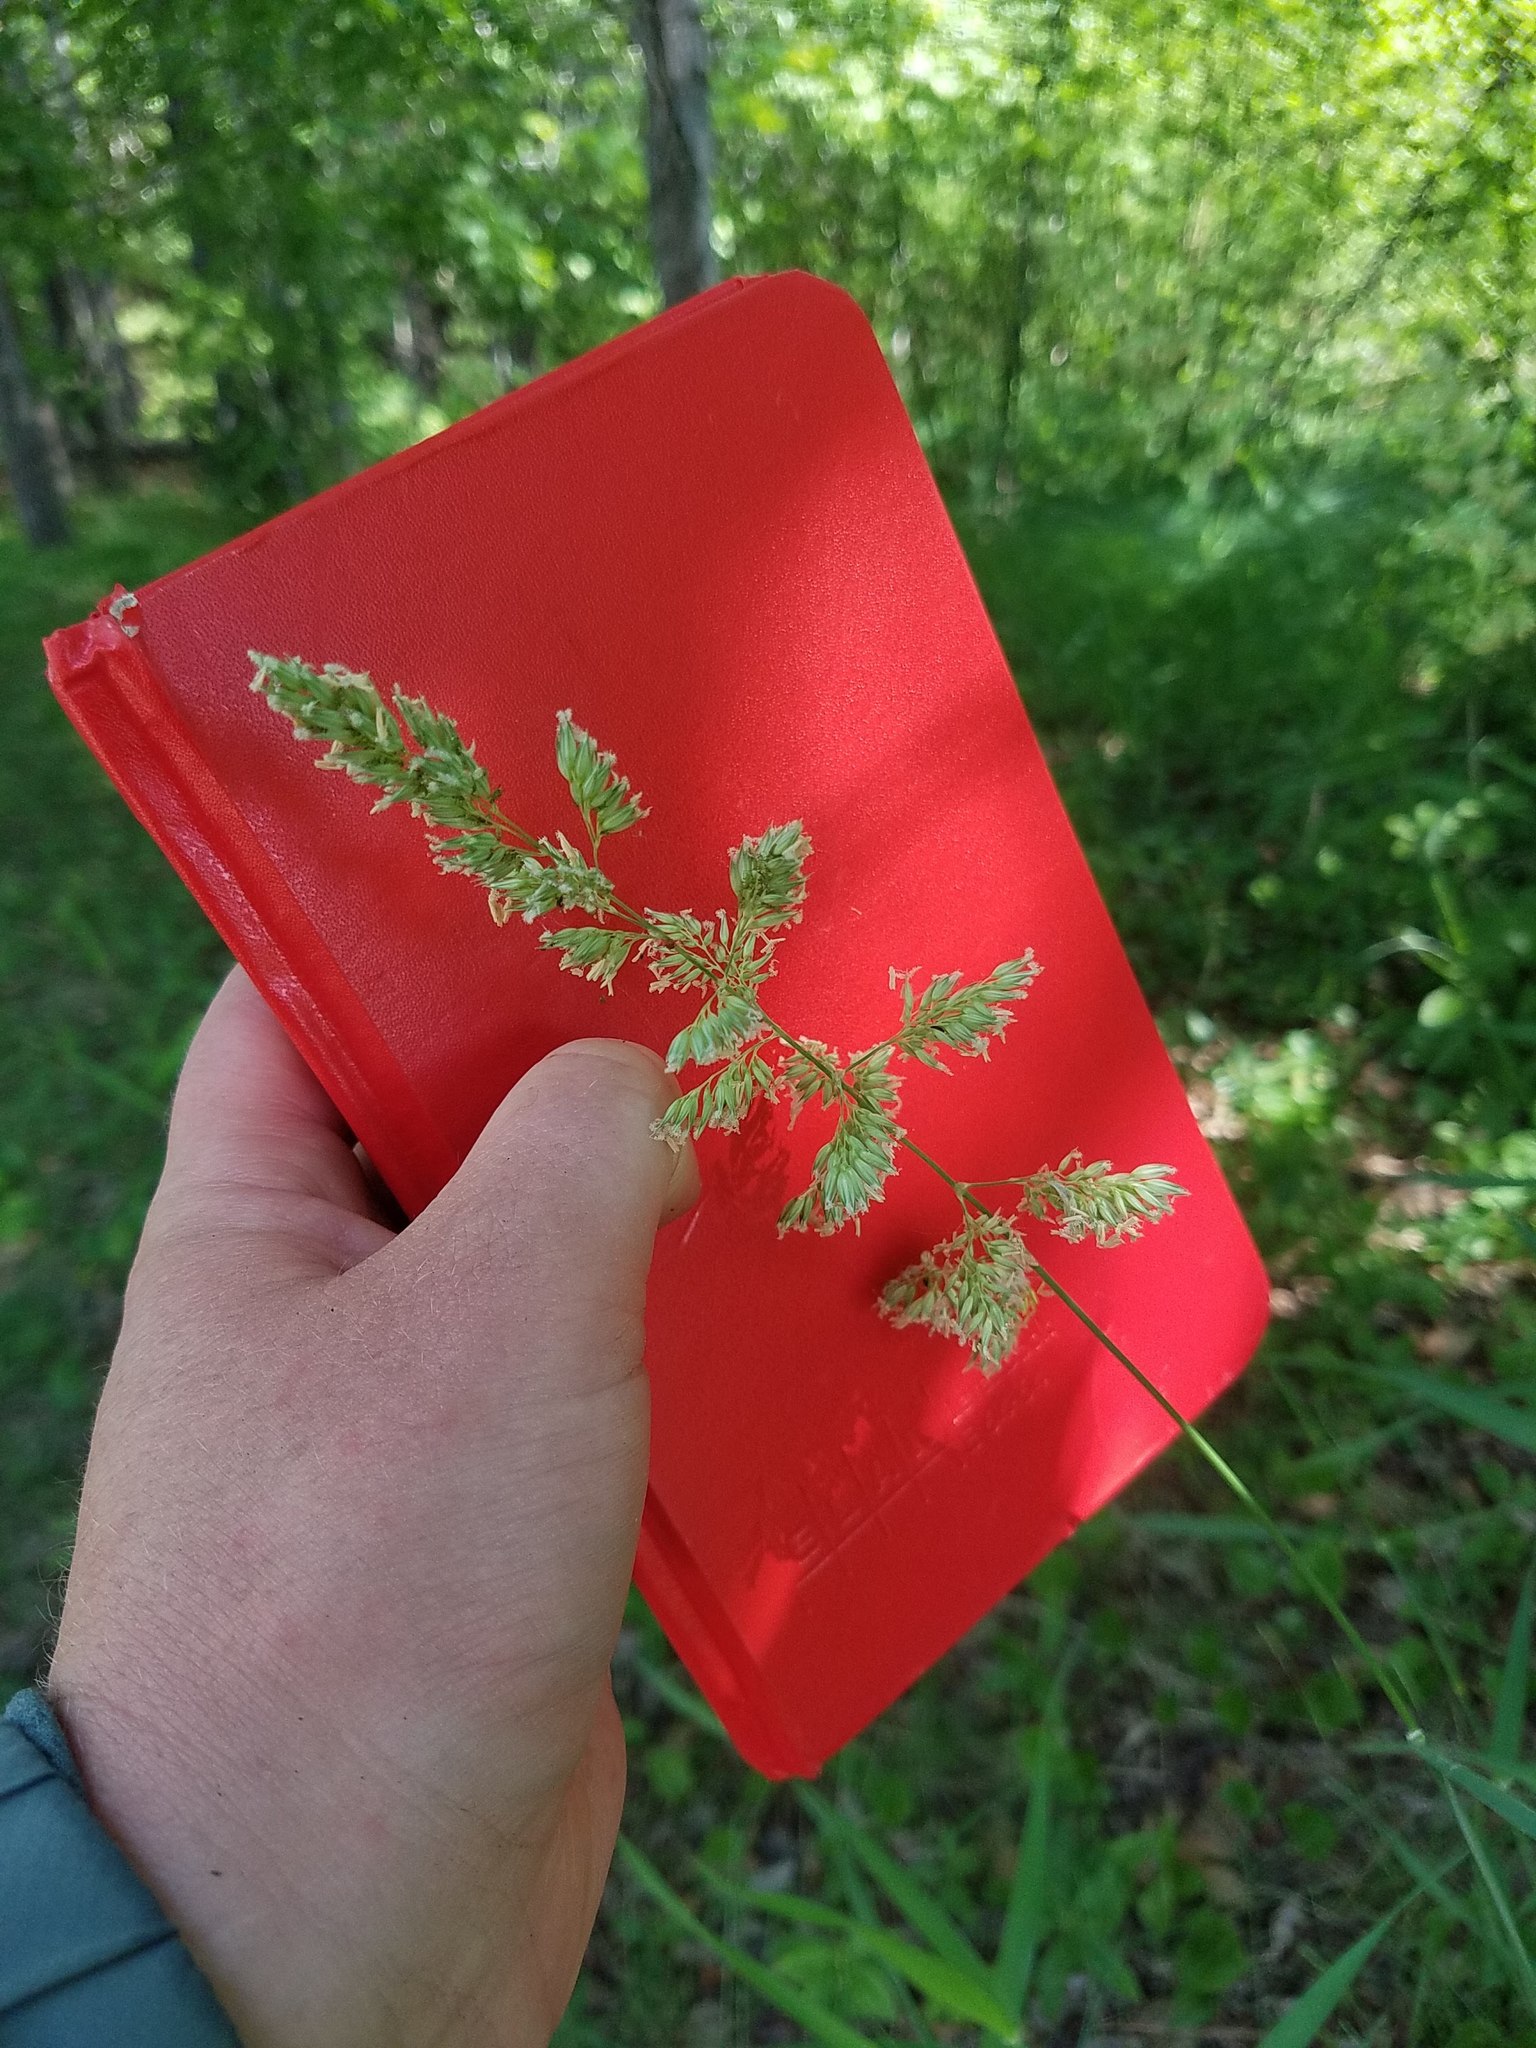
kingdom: Plantae
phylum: Tracheophyta
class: Liliopsida
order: Poales
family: Poaceae
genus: Phalaris
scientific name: Phalaris arundinacea
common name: Reed canary-grass
